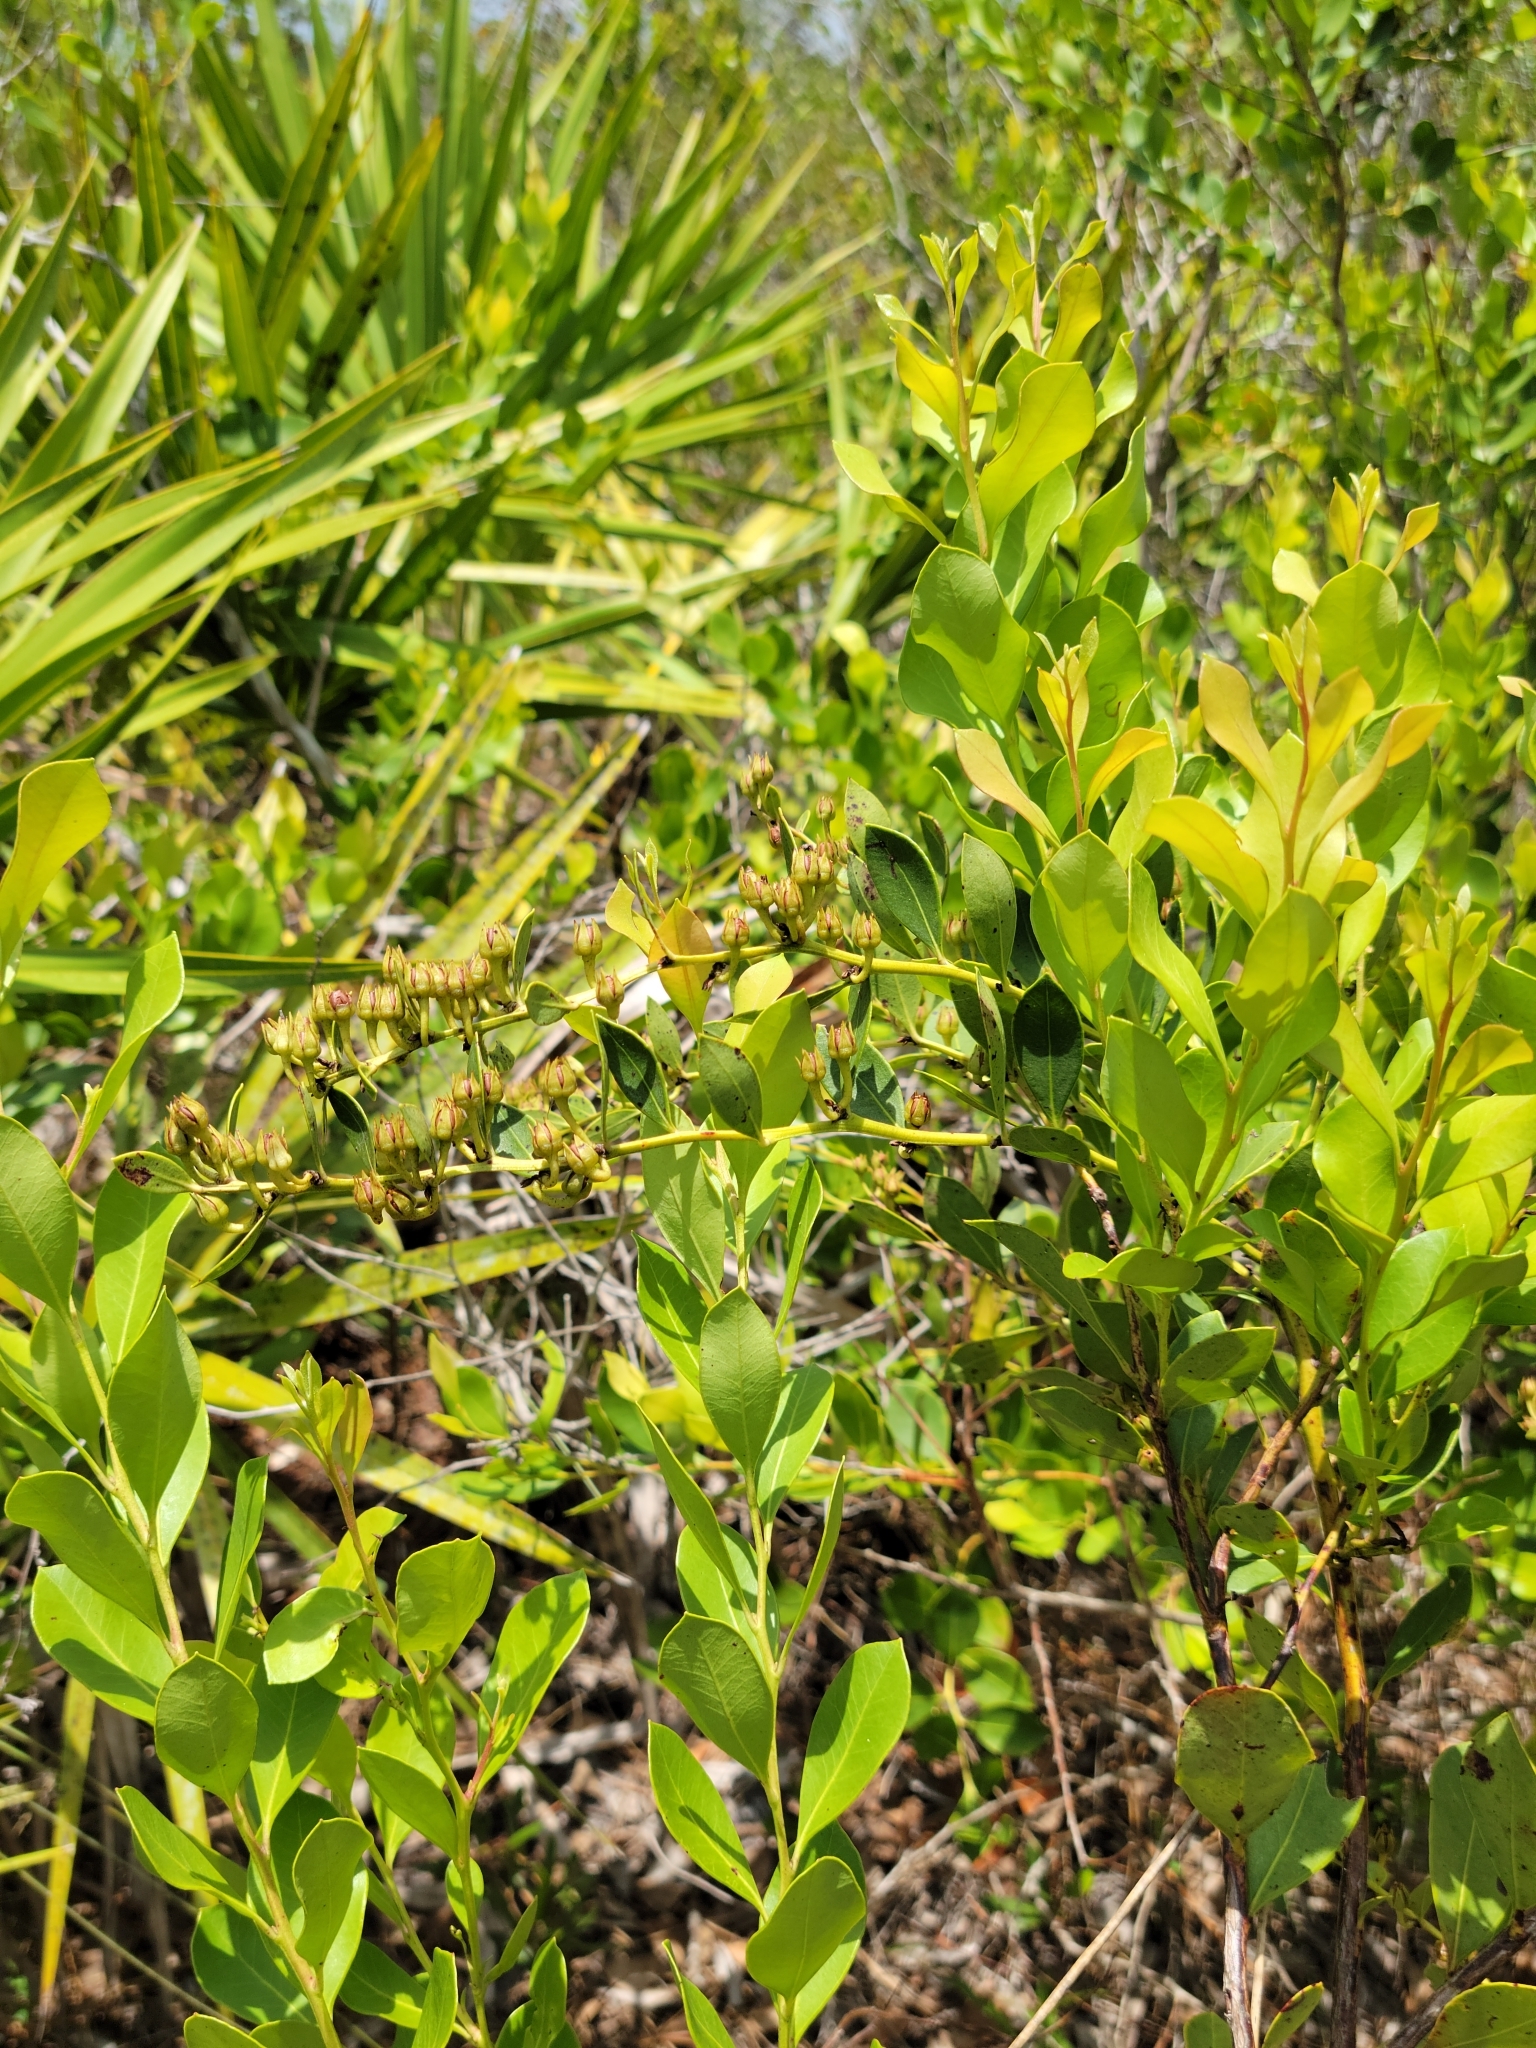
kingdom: Plantae
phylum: Tracheophyta
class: Magnoliopsida
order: Ericales
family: Ericaceae
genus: Lyonia
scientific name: Lyonia lucida
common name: Fetterbush
